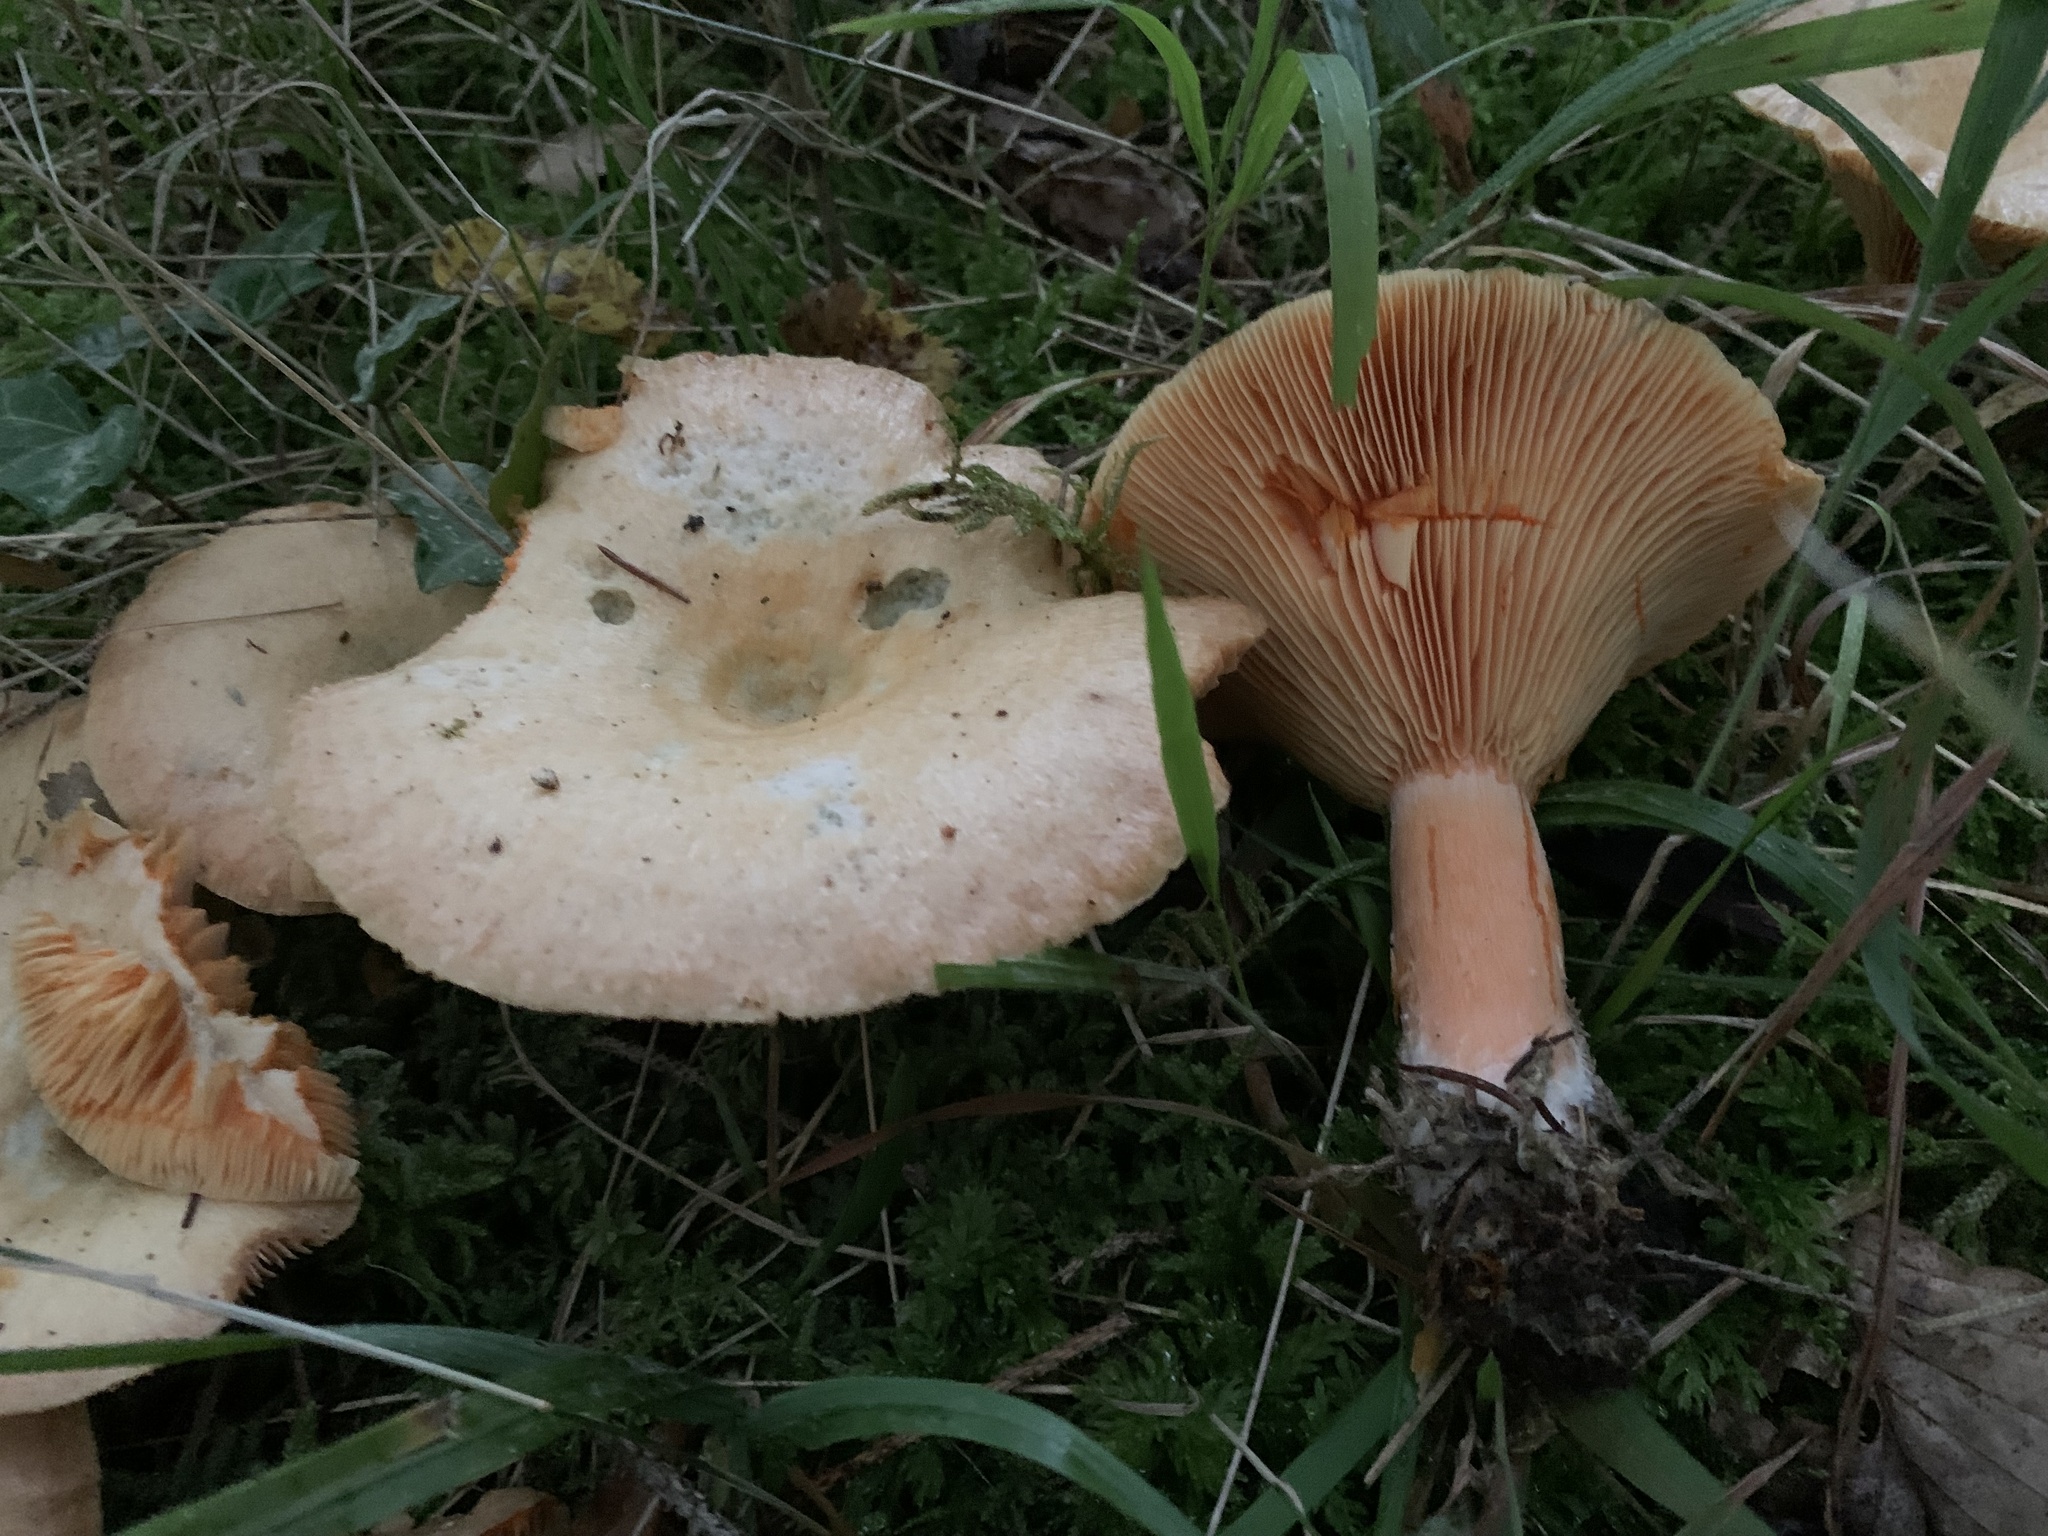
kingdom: Fungi
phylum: Basidiomycota
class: Agaricomycetes
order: Russulales
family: Russulaceae
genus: Lactarius
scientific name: Lactarius deterrimus
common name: False saffron milkcap
